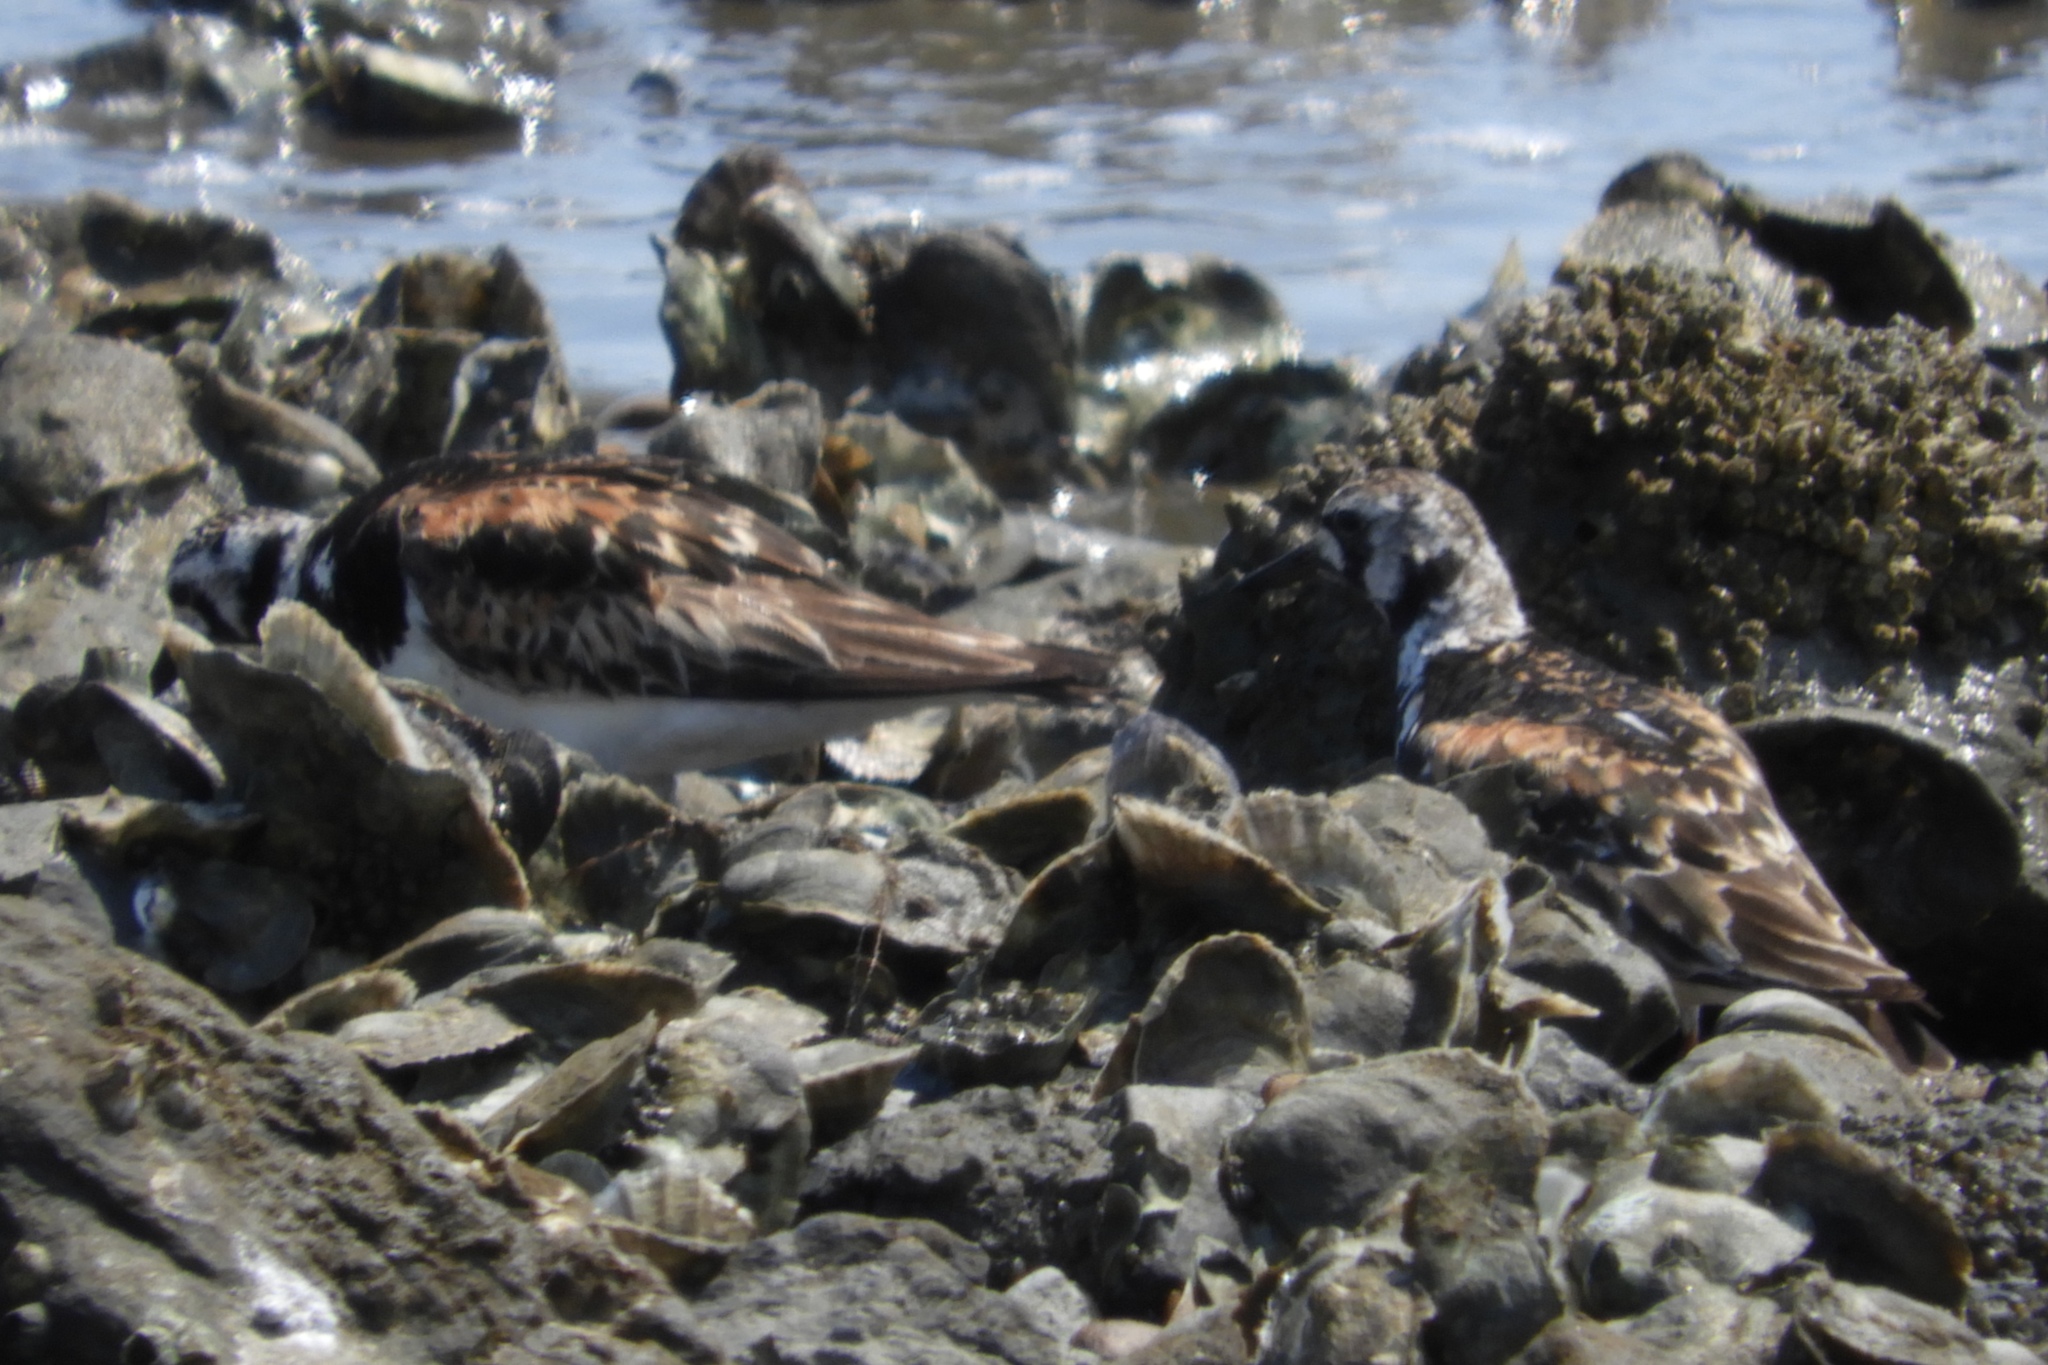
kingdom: Animalia
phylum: Chordata
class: Aves
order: Charadriiformes
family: Scolopacidae
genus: Arenaria
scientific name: Arenaria interpres
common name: Ruddy turnstone
